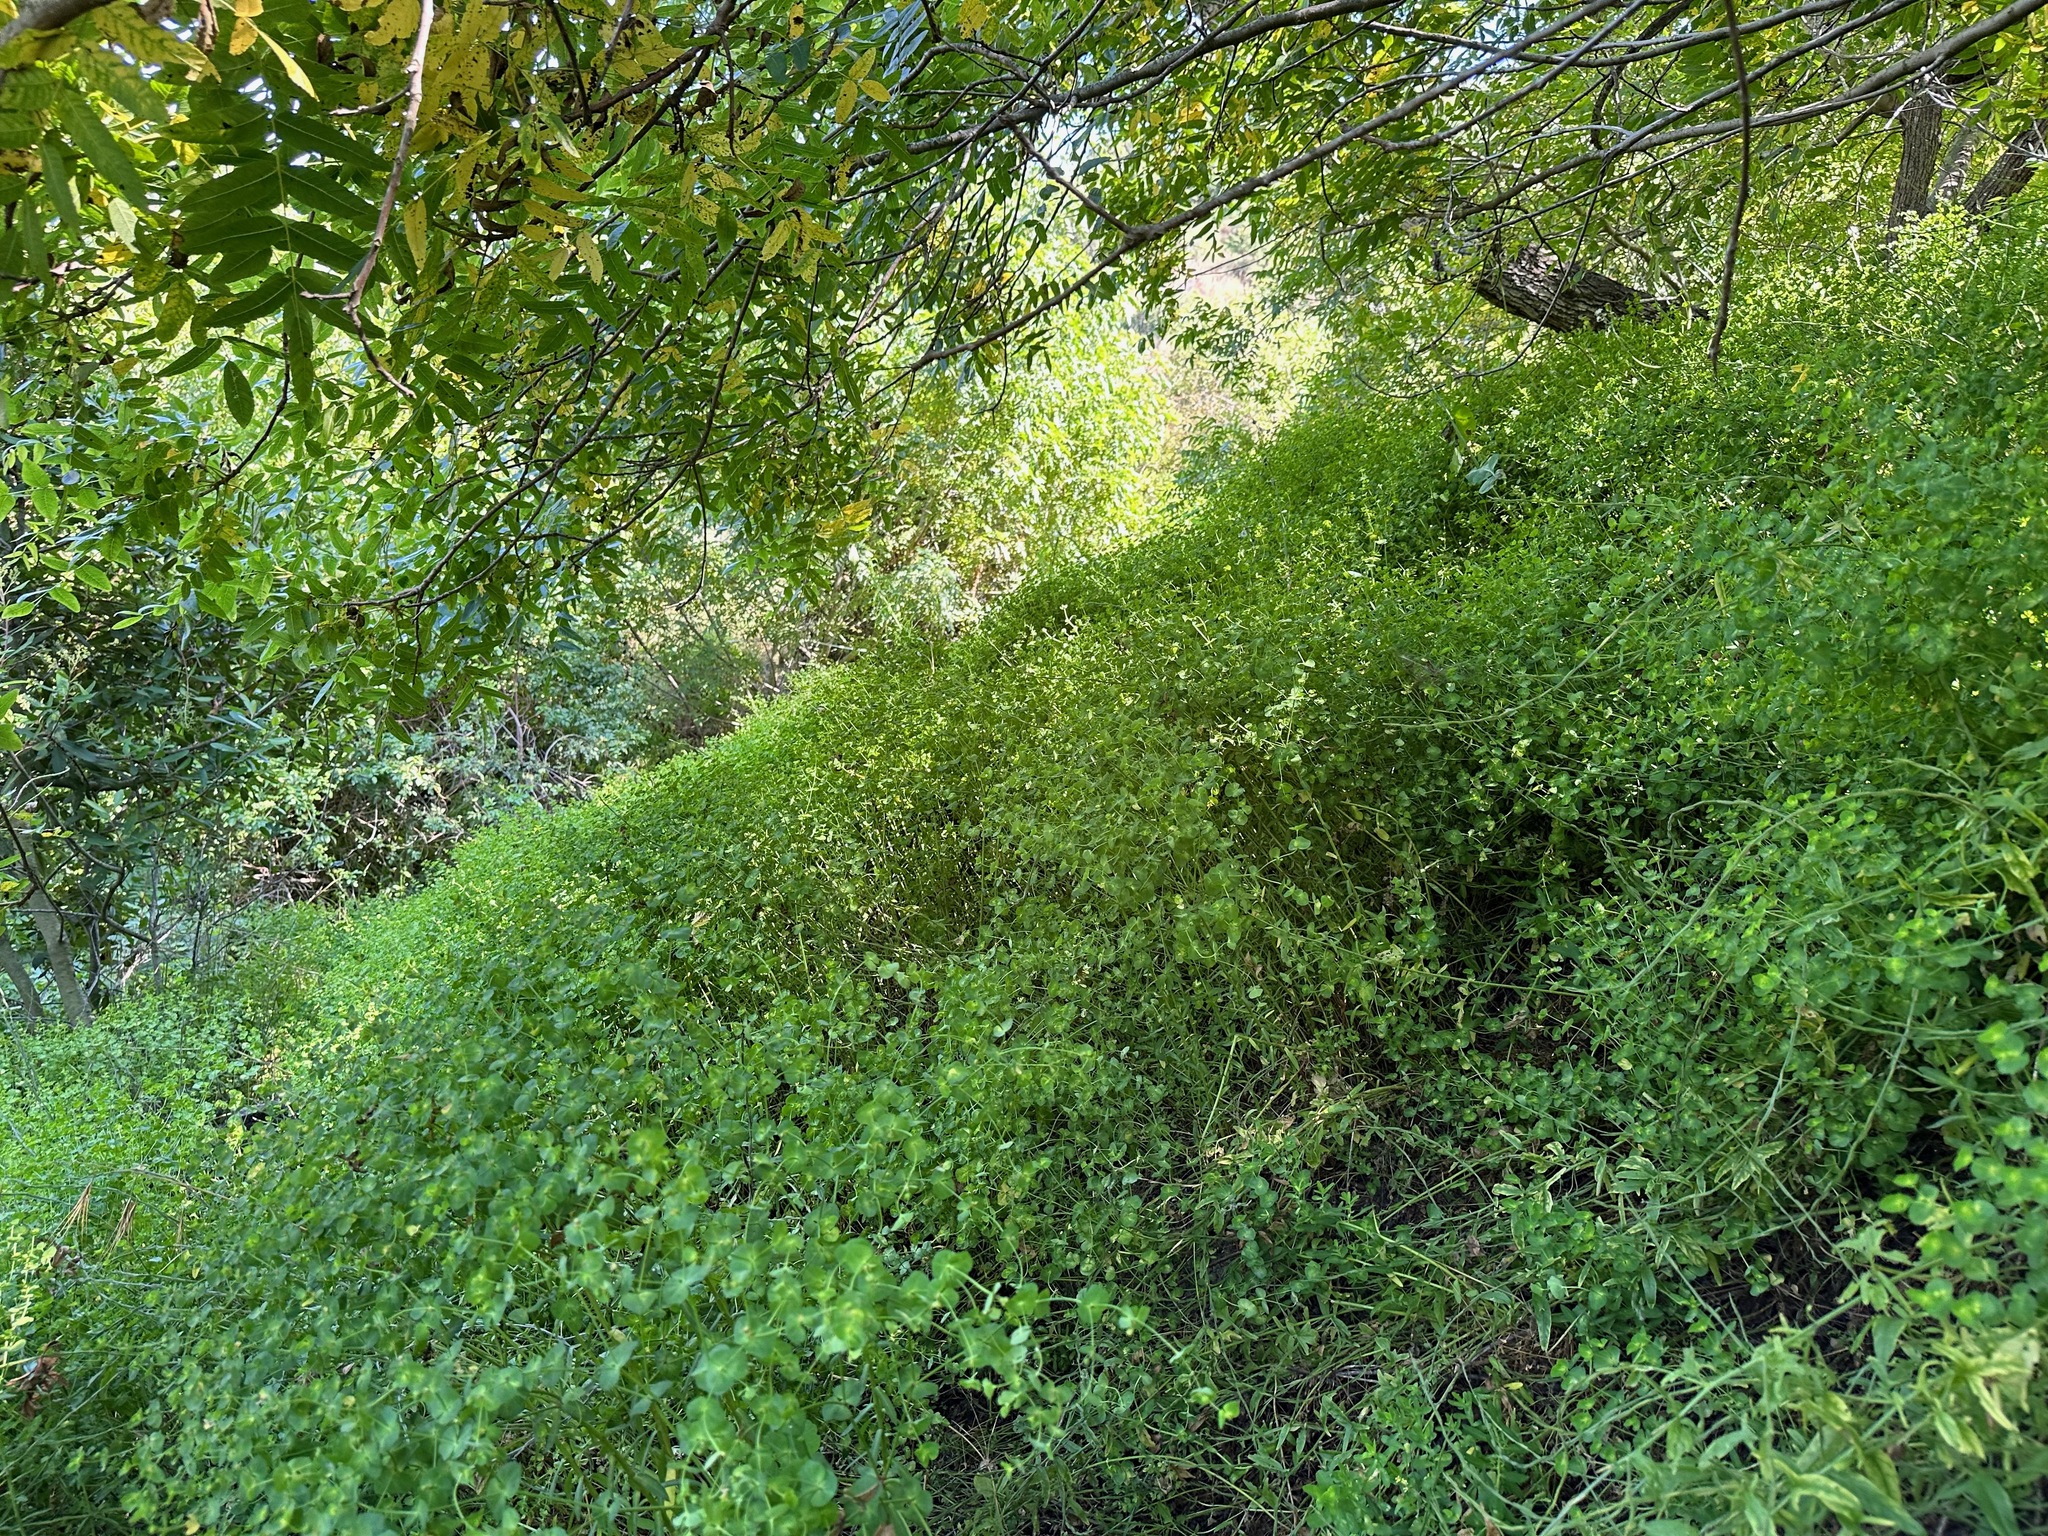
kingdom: Plantae
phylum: Tracheophyta
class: Magnoliopsida
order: Malpighiales
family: Euphorbiaceae
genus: Euphorbia
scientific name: Euphorbia terracina
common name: Geraldton carnation weed
